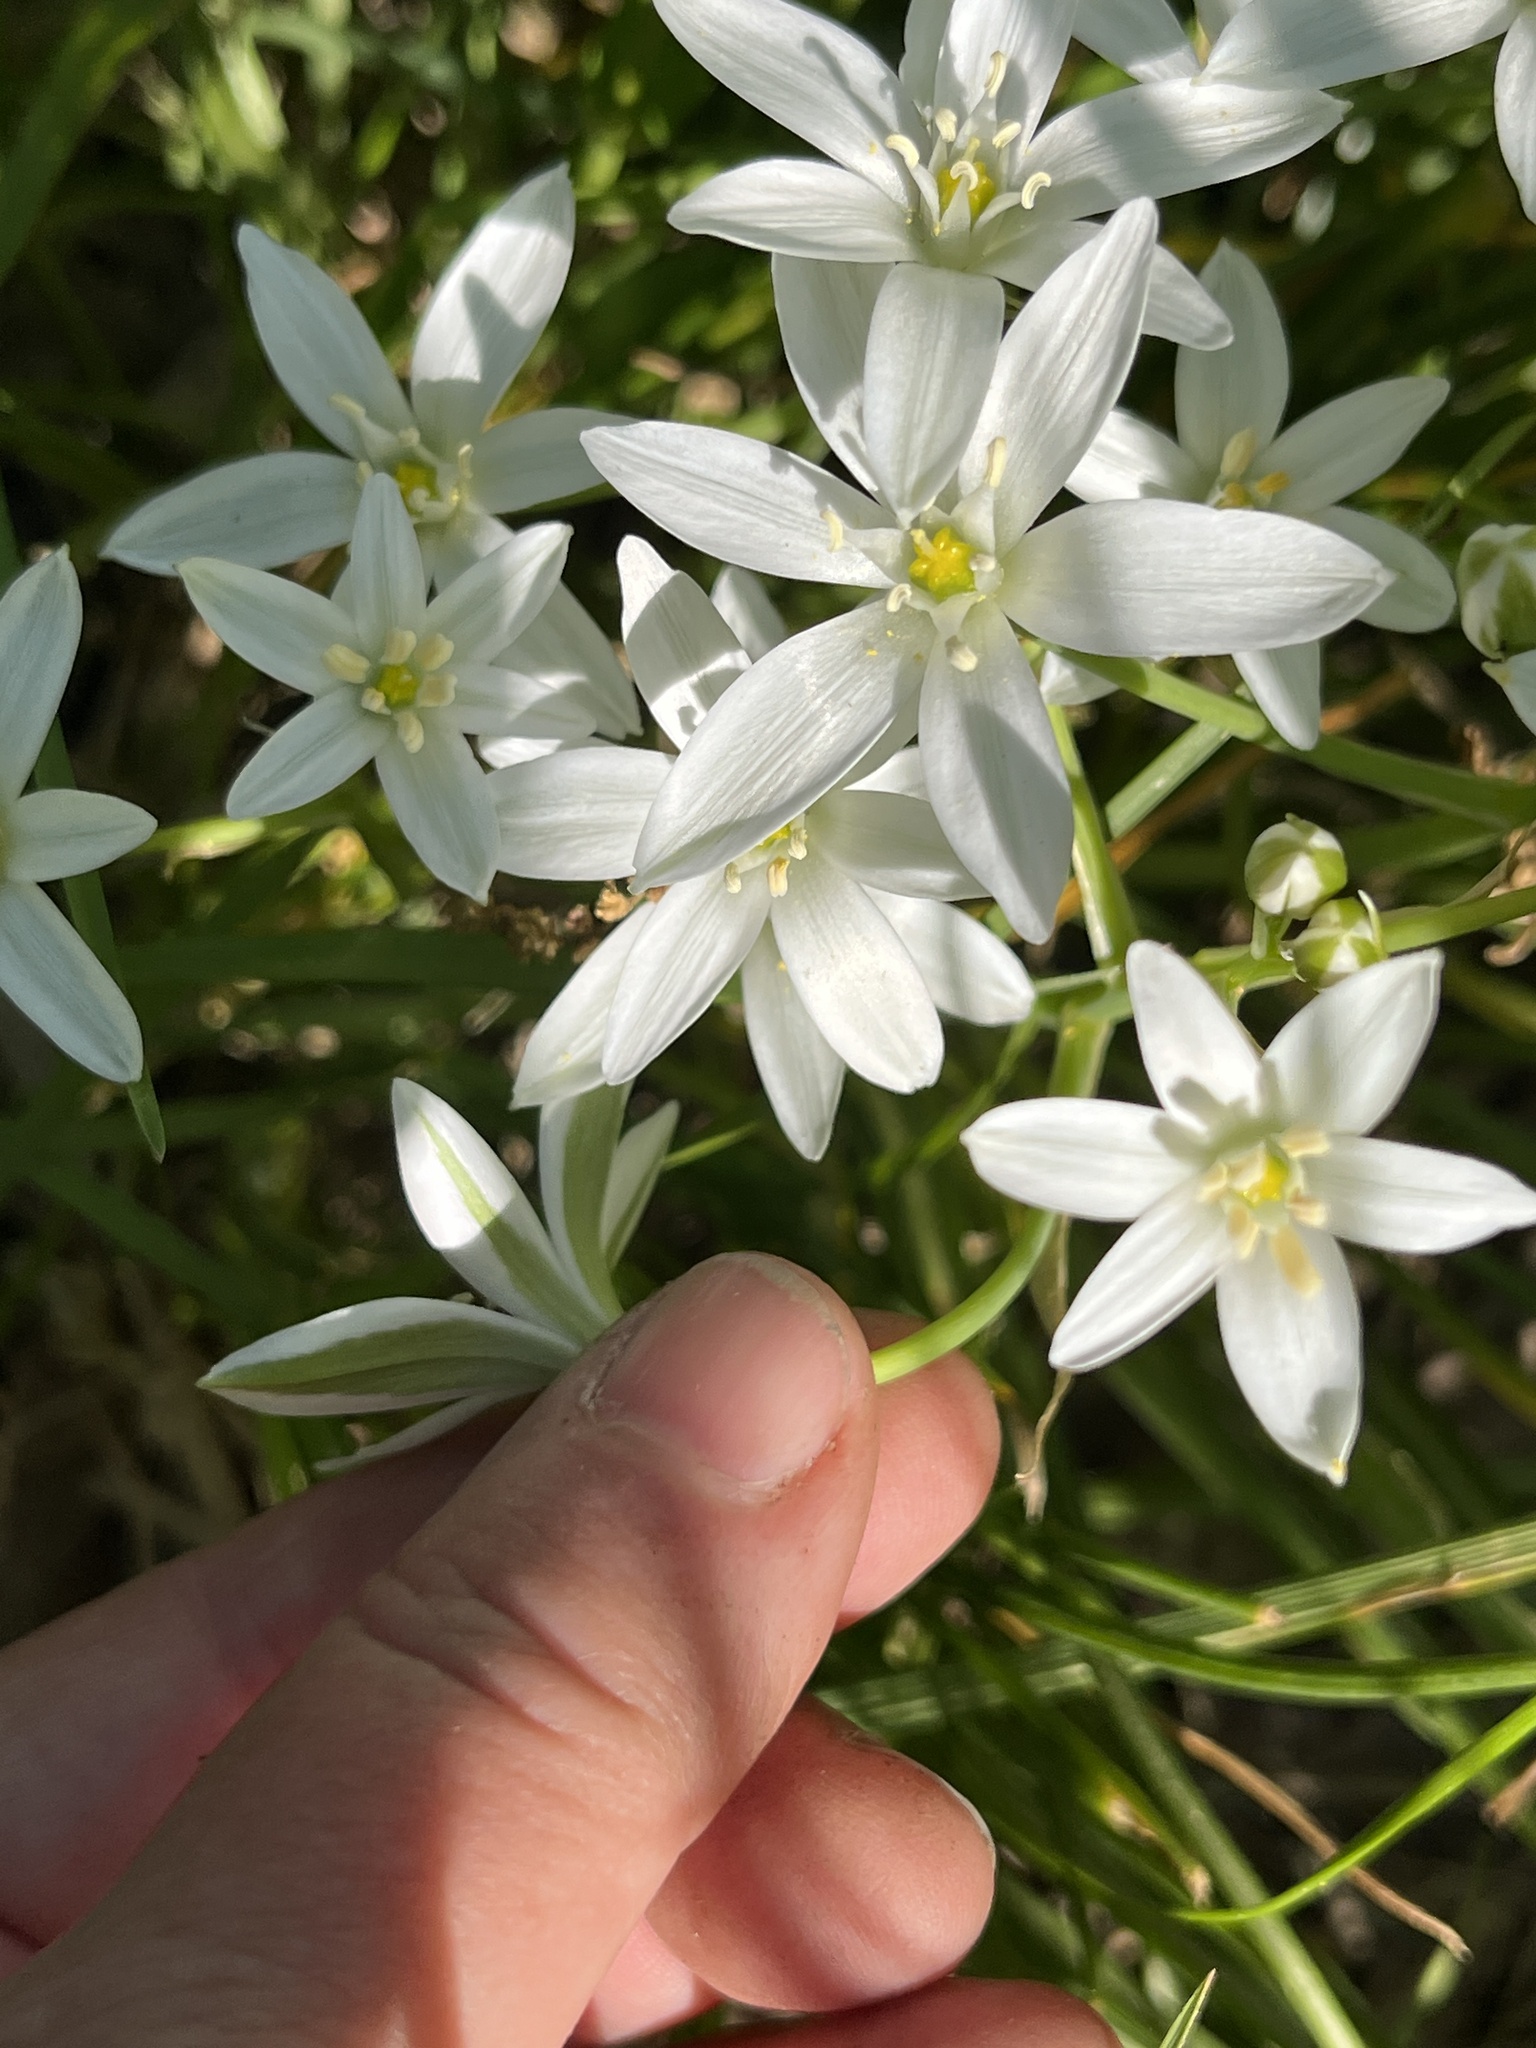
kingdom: Plantae
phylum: Tracheophyta
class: Liliopsida
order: Asparagales
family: Asparagaceae
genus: Ornithogalum
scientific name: Ornithogalum umbellatum
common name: Garden star-of-bethlehem
